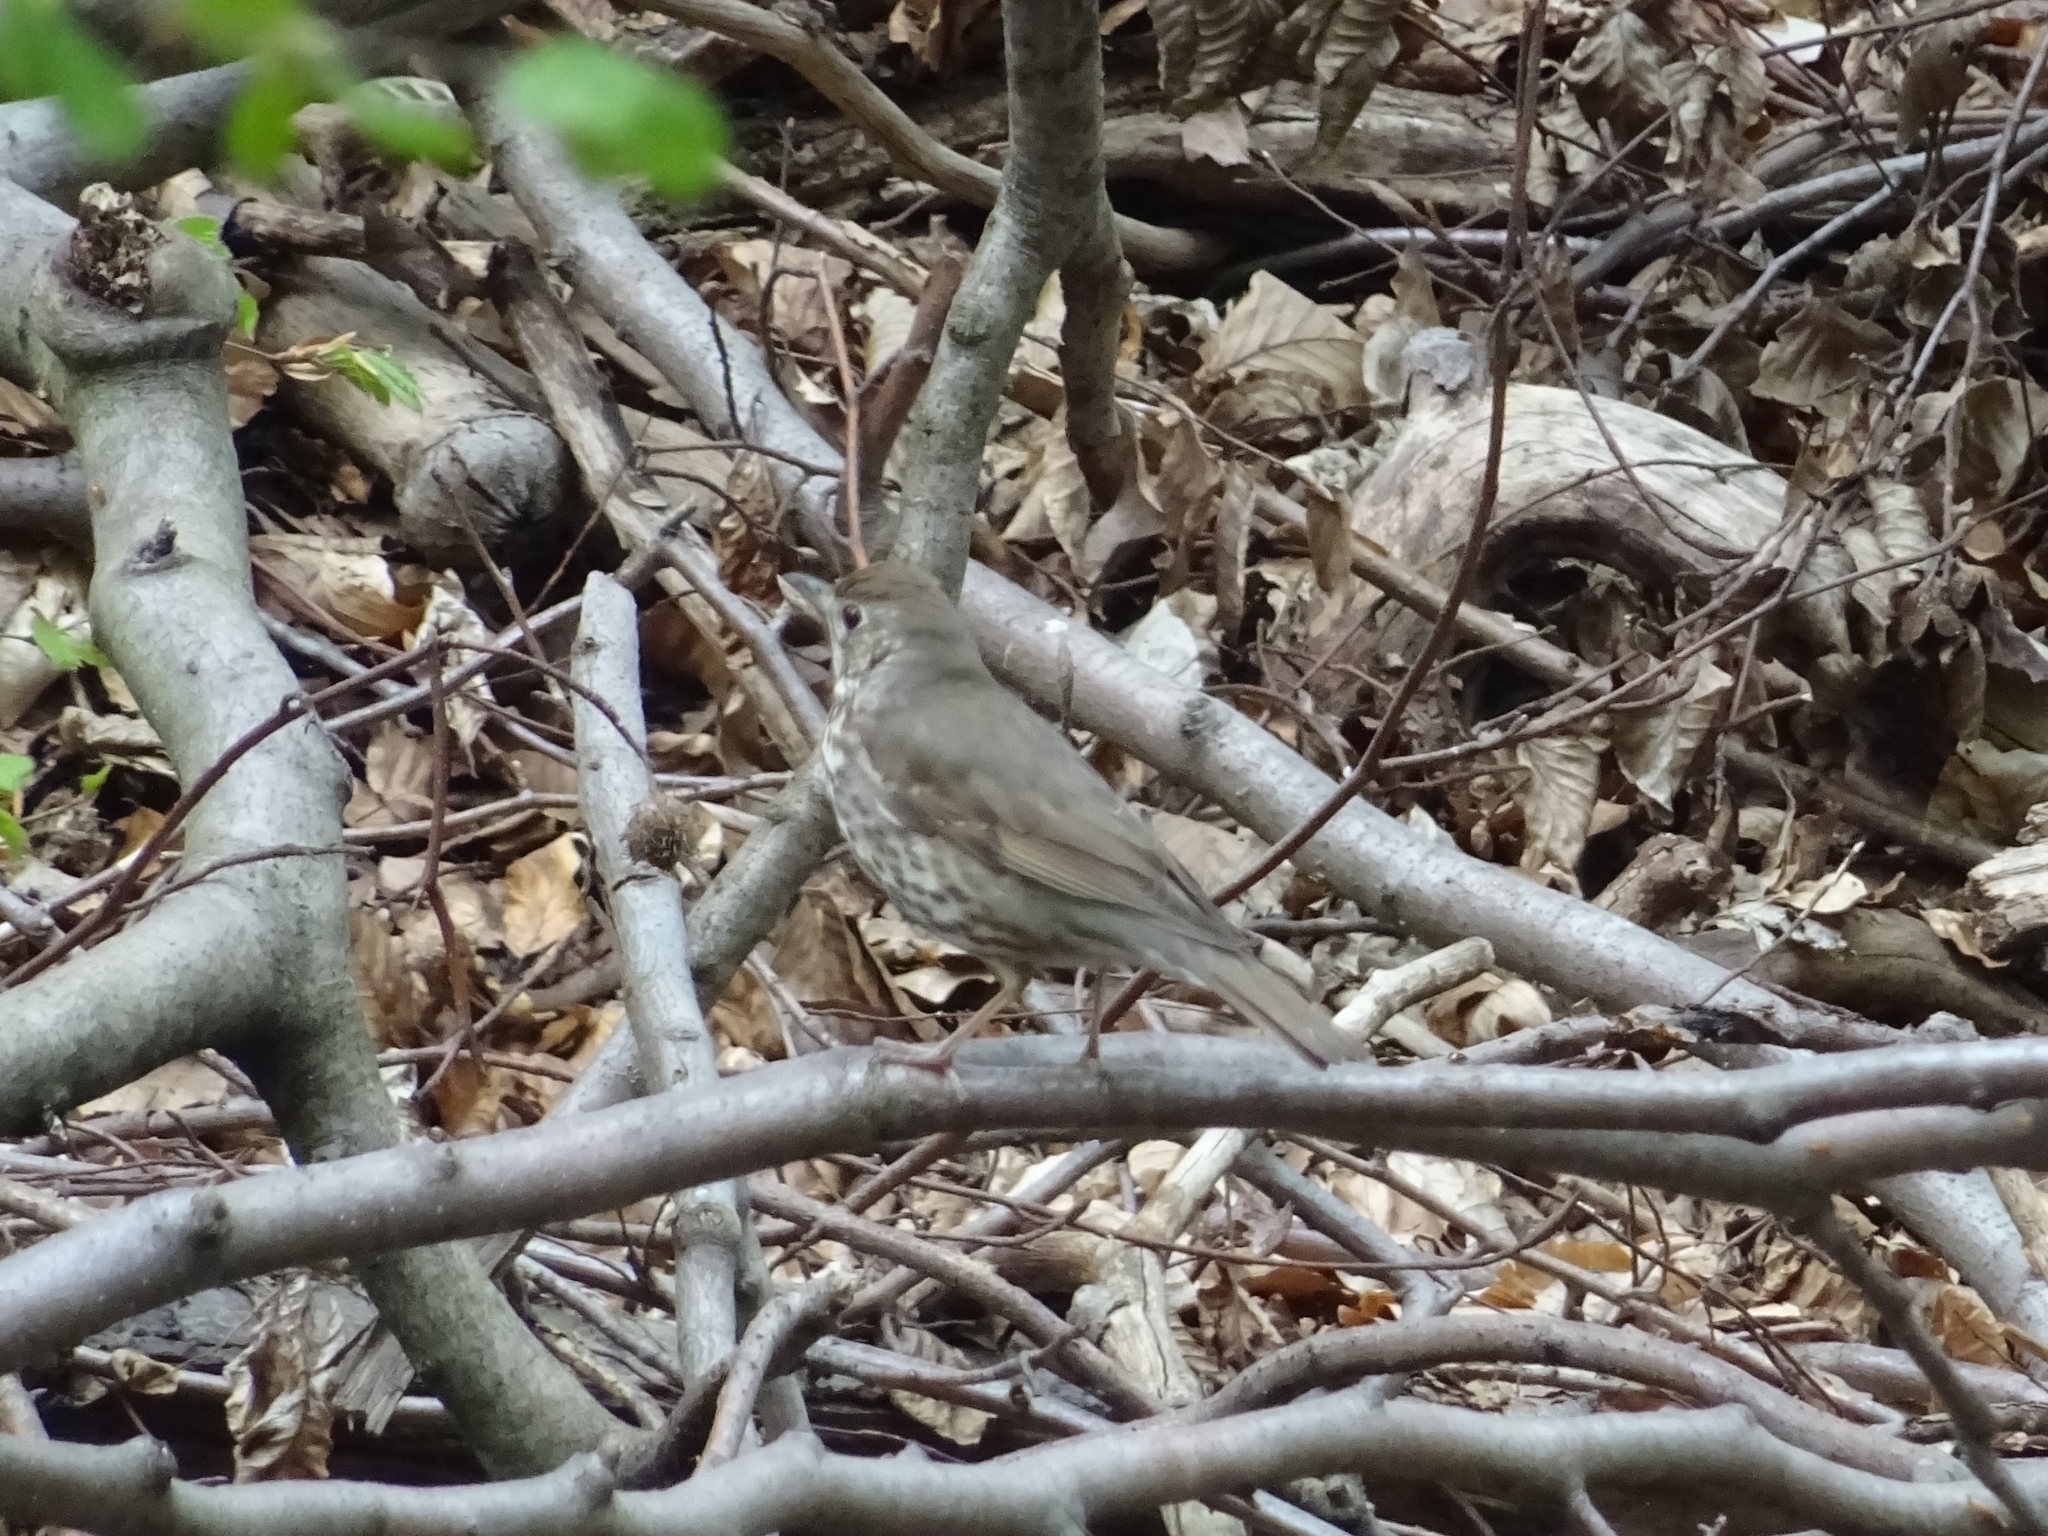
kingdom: Animalia
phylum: Chordata
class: Aves
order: Passeriformes
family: Turdidae
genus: Turdus
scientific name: Turdus philomelos
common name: Song thrush
